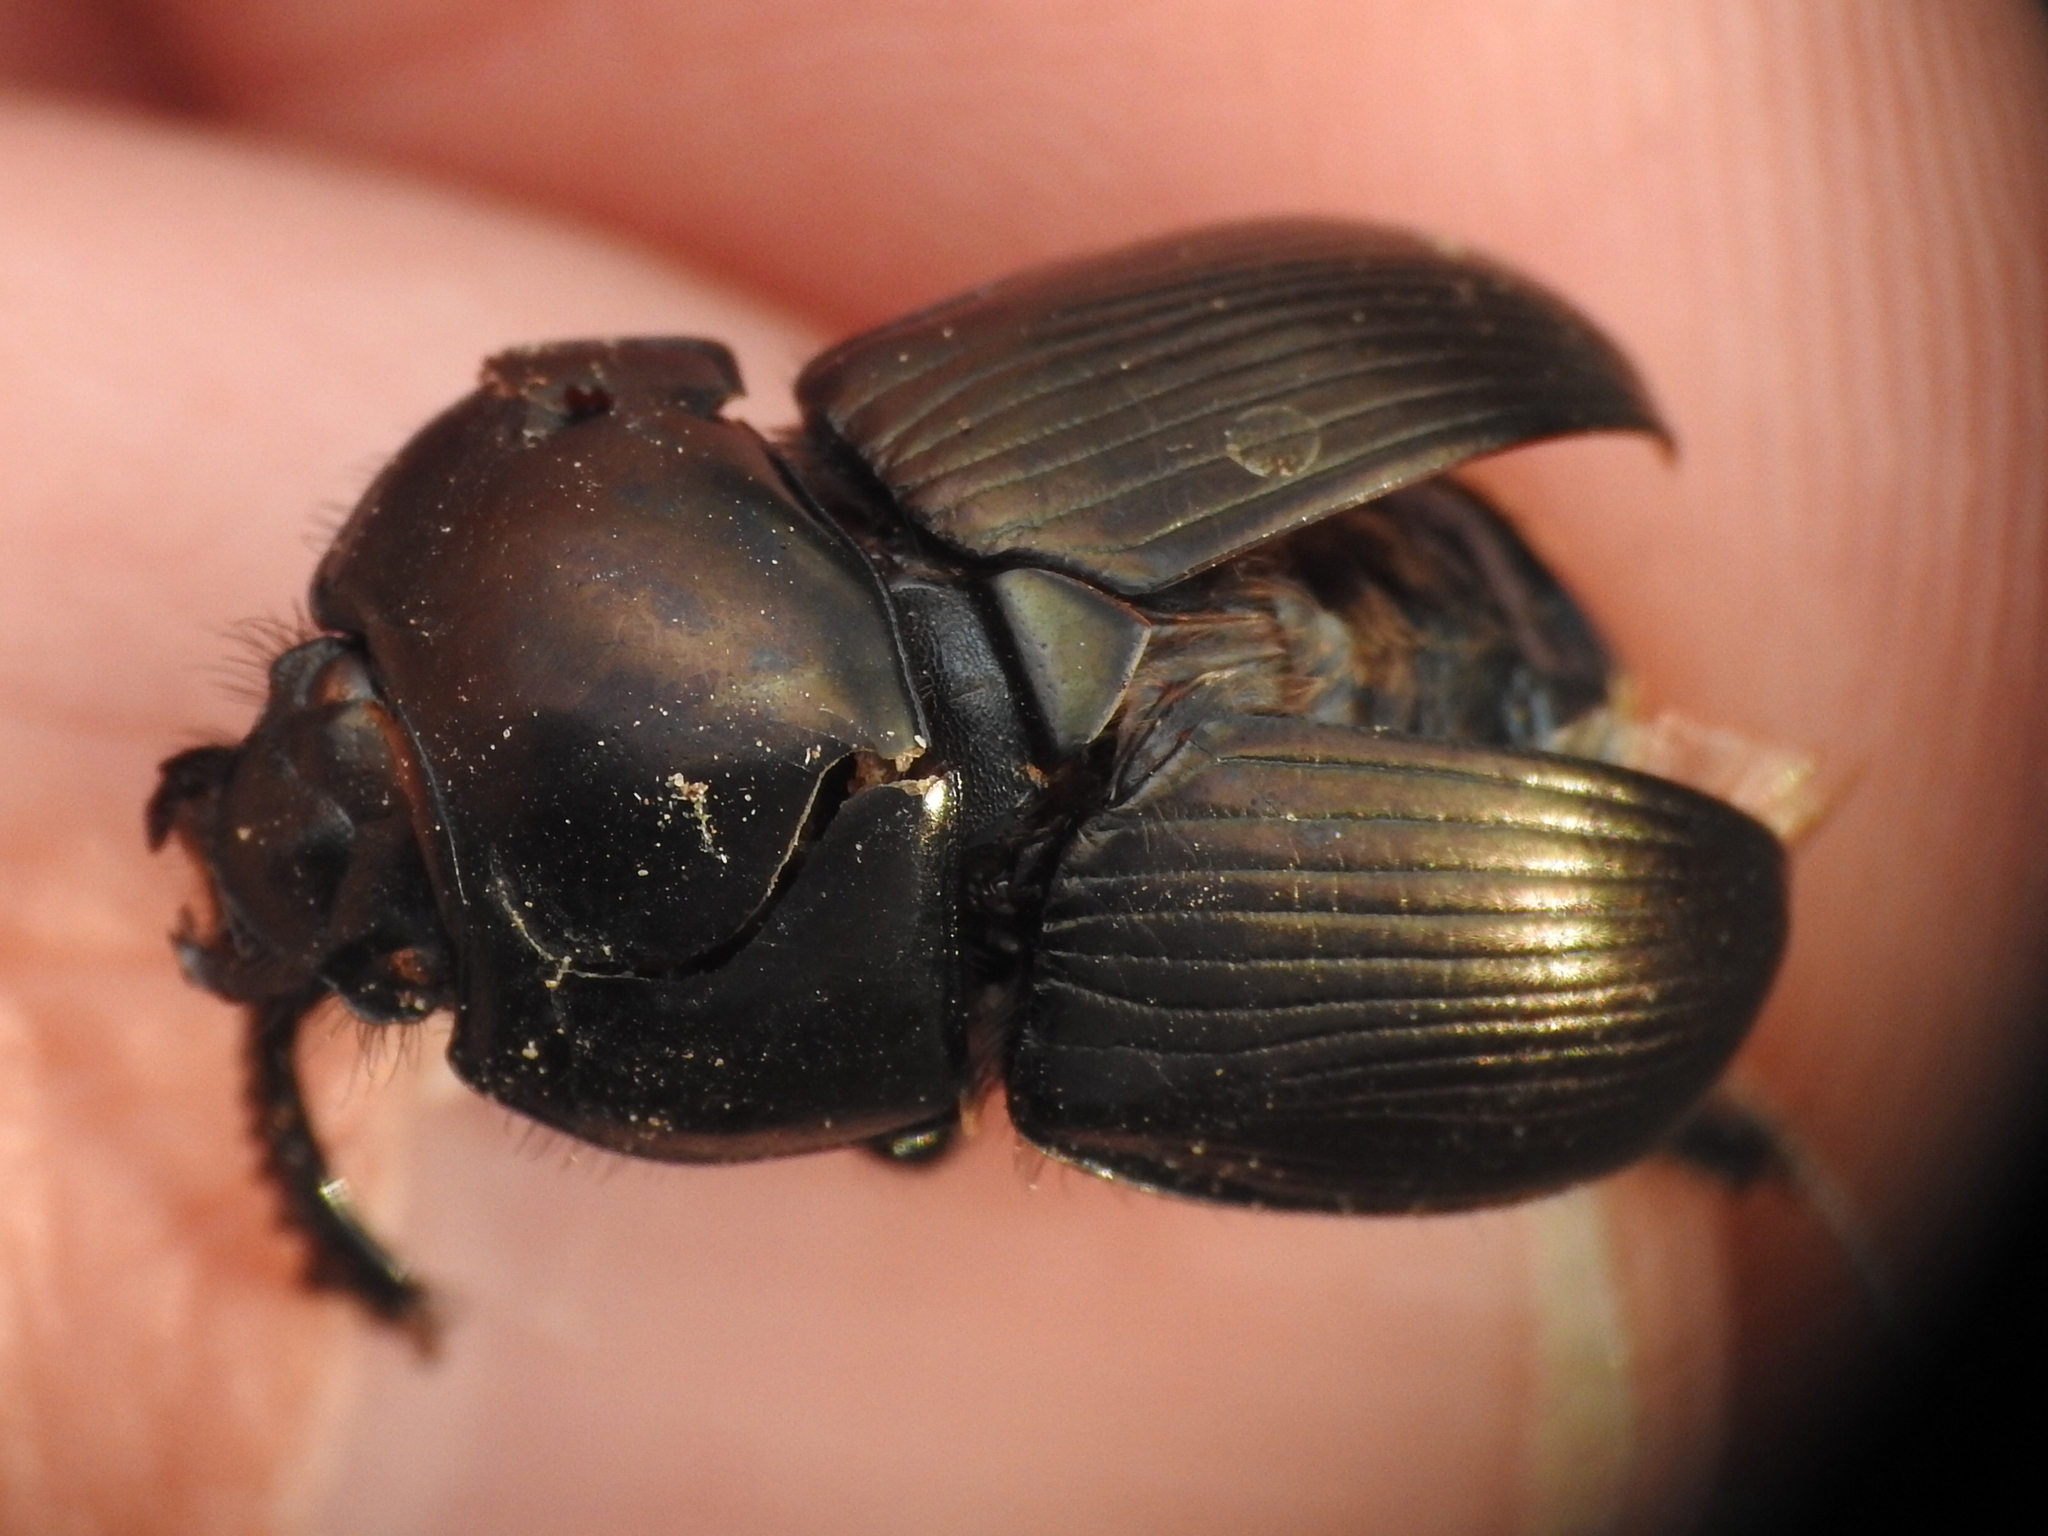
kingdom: Animalia
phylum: Arthropoda
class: Insecta
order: Coleoptera
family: Geotrupidae
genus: Cnemotrupes
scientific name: Cnemotrupes semiopacus
